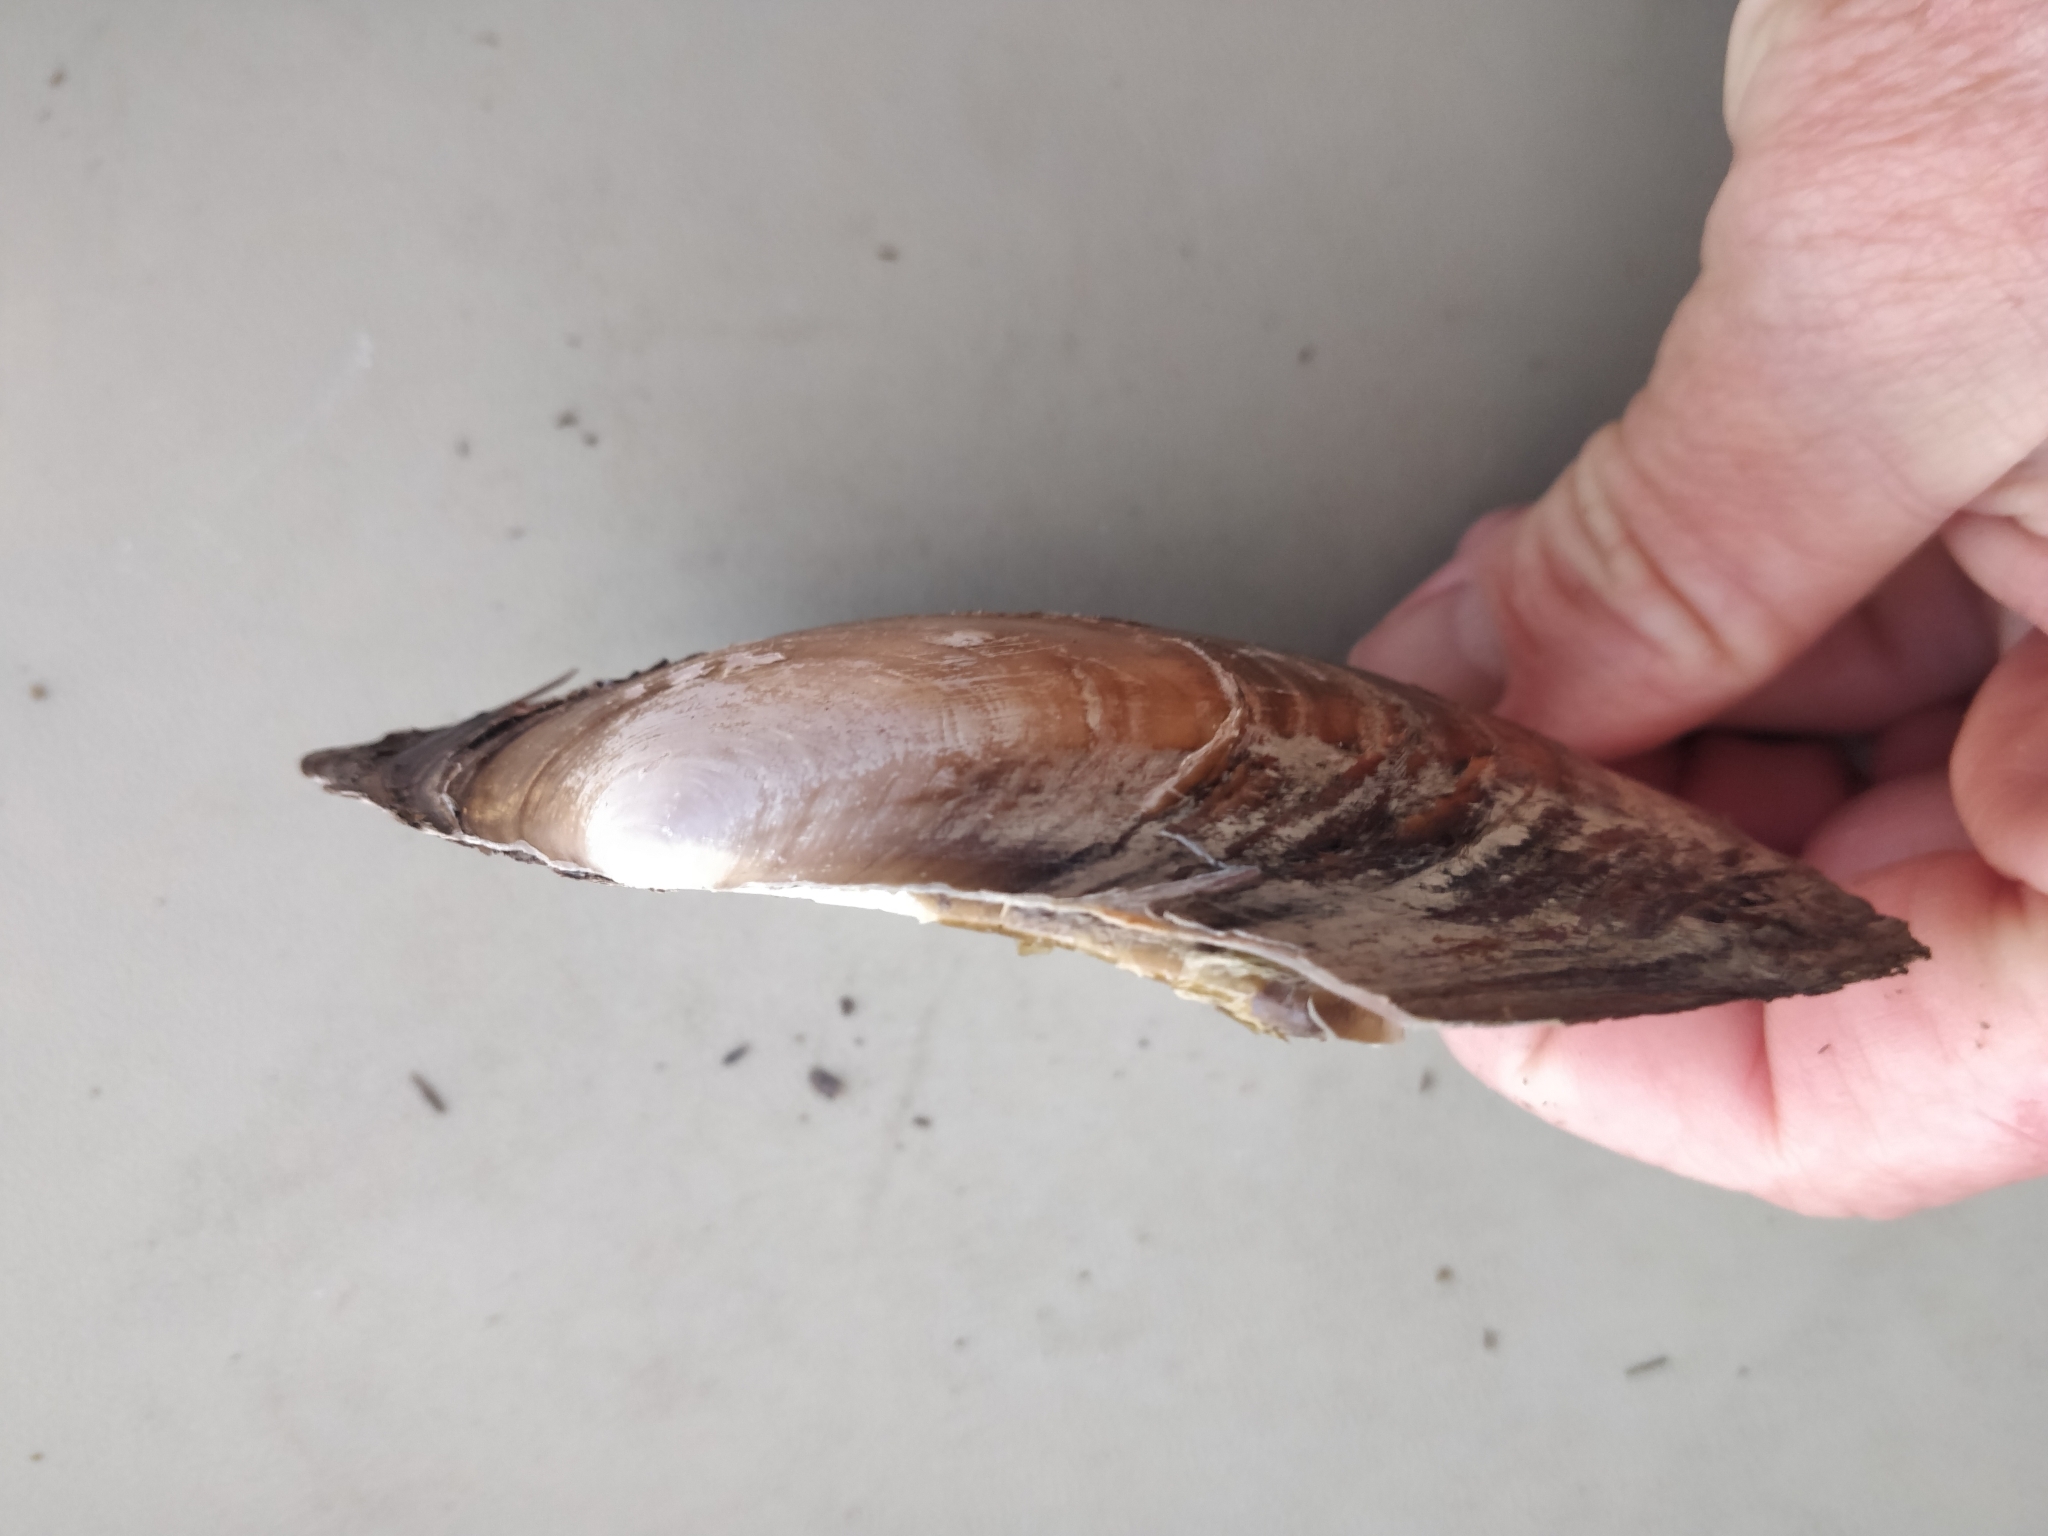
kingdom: Animalia
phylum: Mollusca
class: Bivalvia
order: Unionida
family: Unionidae
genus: Potamilus
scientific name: Potamilus ohiensis
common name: Pink papershell
